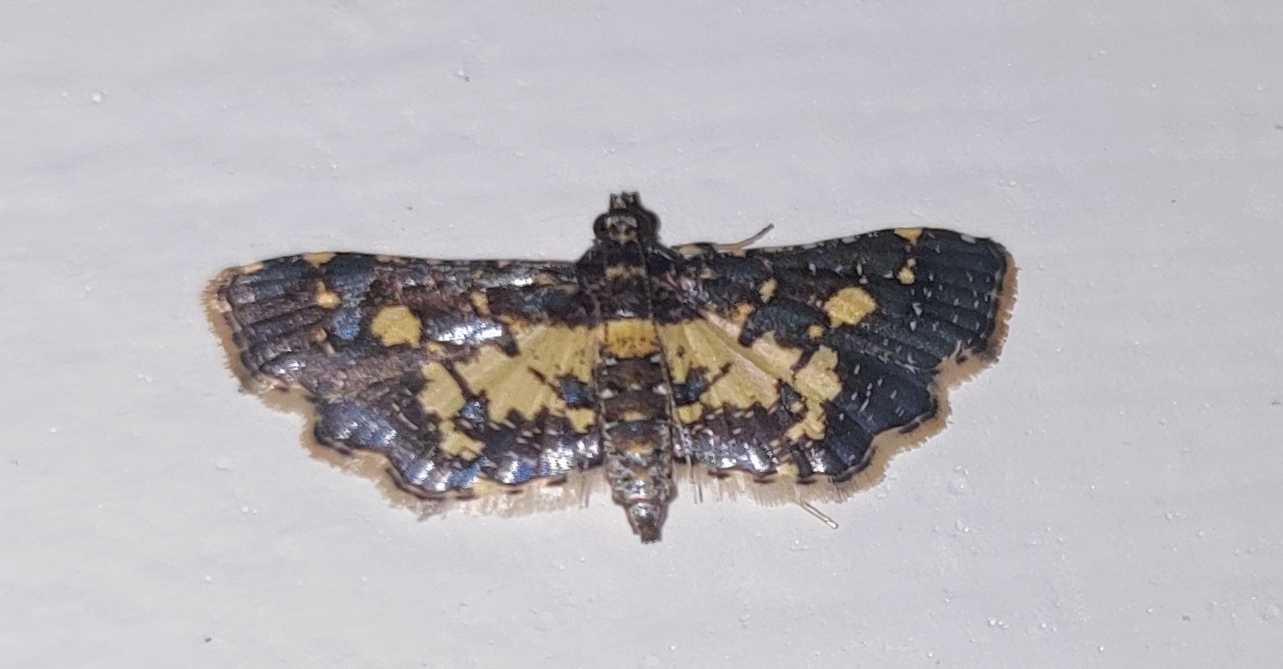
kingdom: Animalia
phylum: Arthropoda
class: Insecta
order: Lepidoptera
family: Crambidae
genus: Eurrhyparodes
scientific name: Eurrhyparodes bracteolalis
